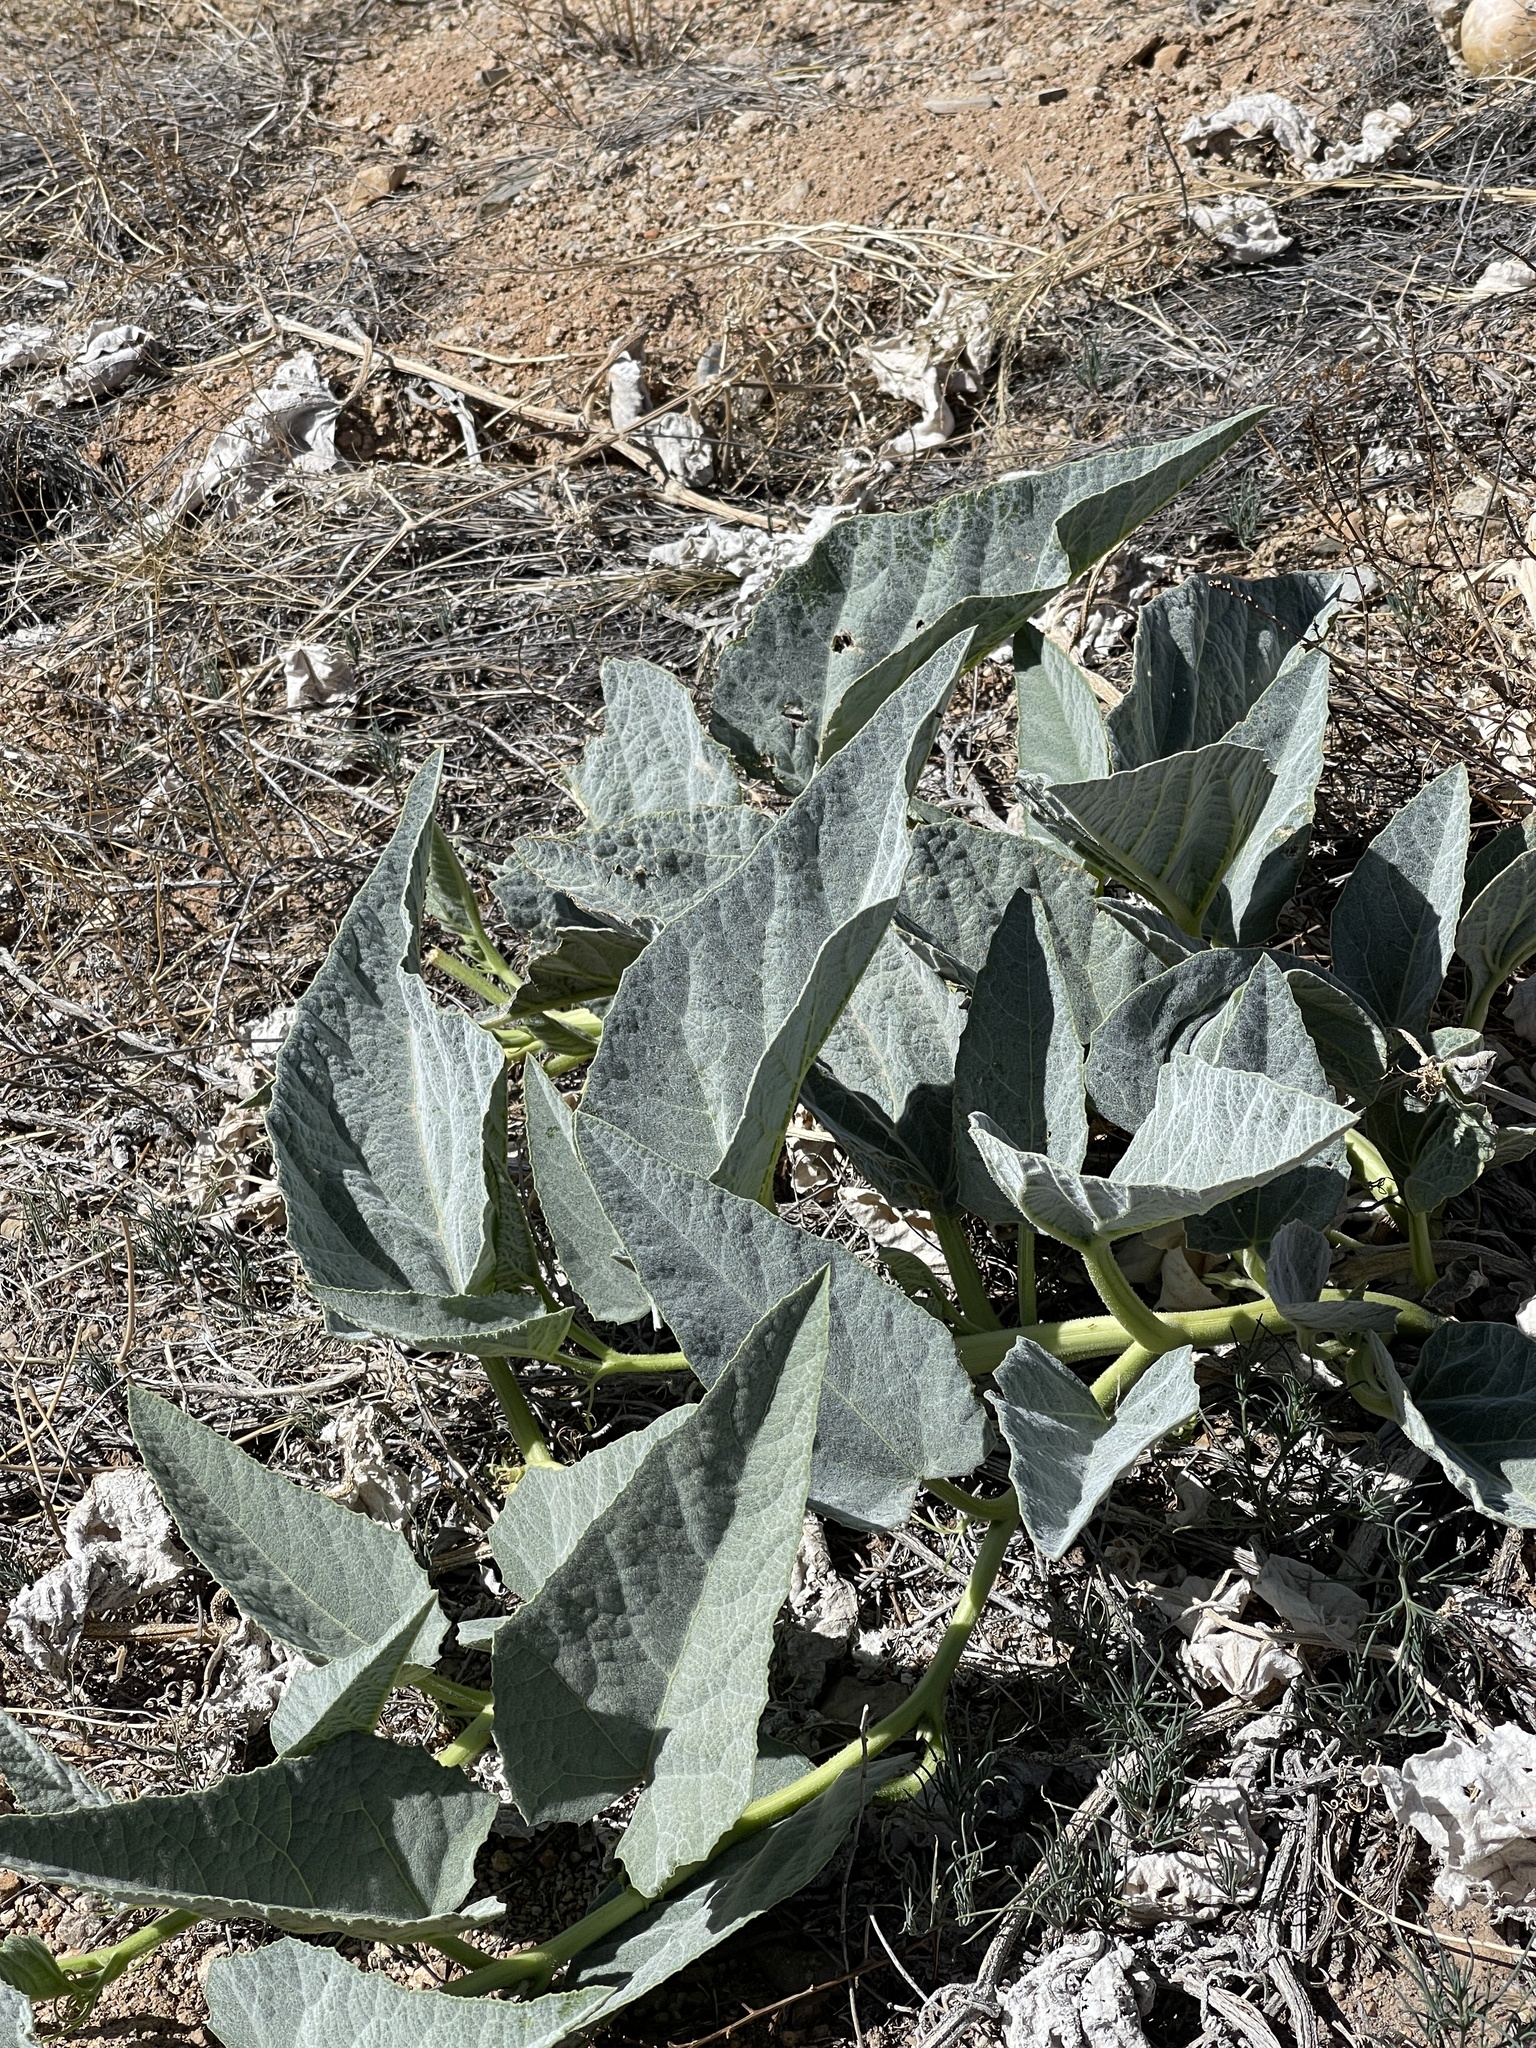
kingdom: Plantae
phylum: Tracheophyta
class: Magnoliopsida
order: Cucurbitales
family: Cucurbitaceae
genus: Cucurbita
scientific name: Cucurbita foetidissima
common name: Buffalo gourd
